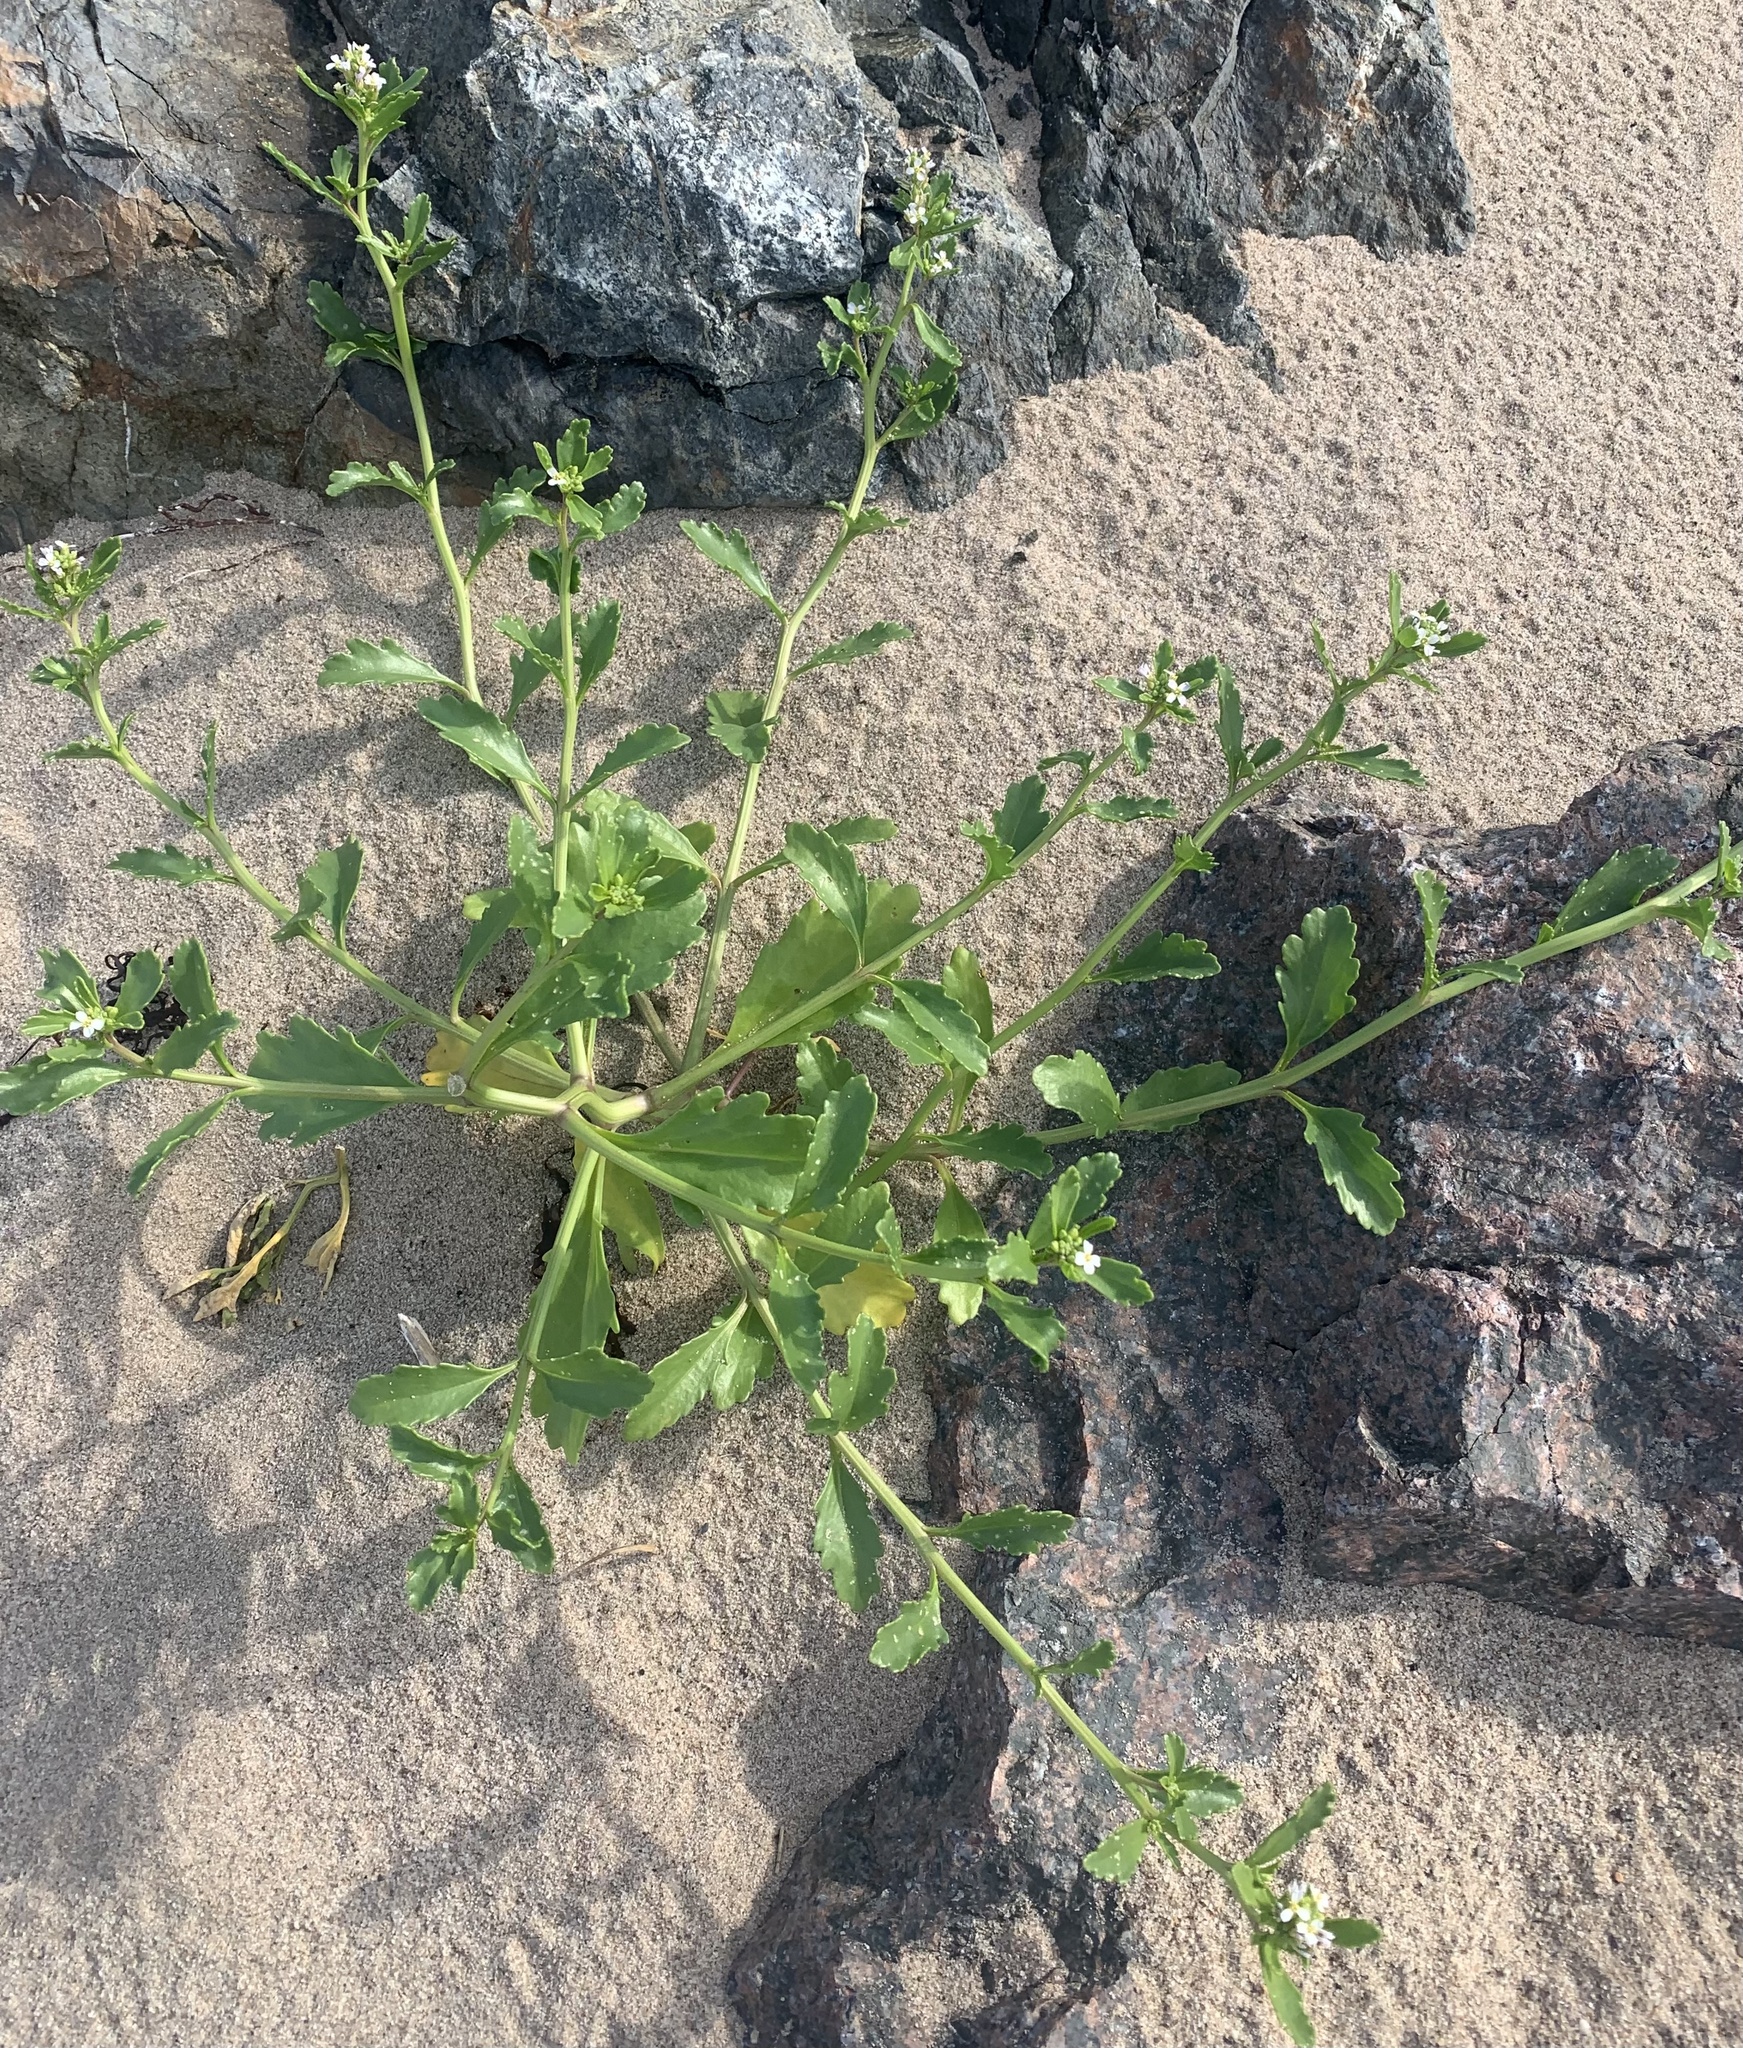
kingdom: Plantae
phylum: Tracheophyta
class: Magnoliopsida
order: Brassicales
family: Brassicaceae
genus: Cakile
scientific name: Cakile edentula
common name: American sea rocket
